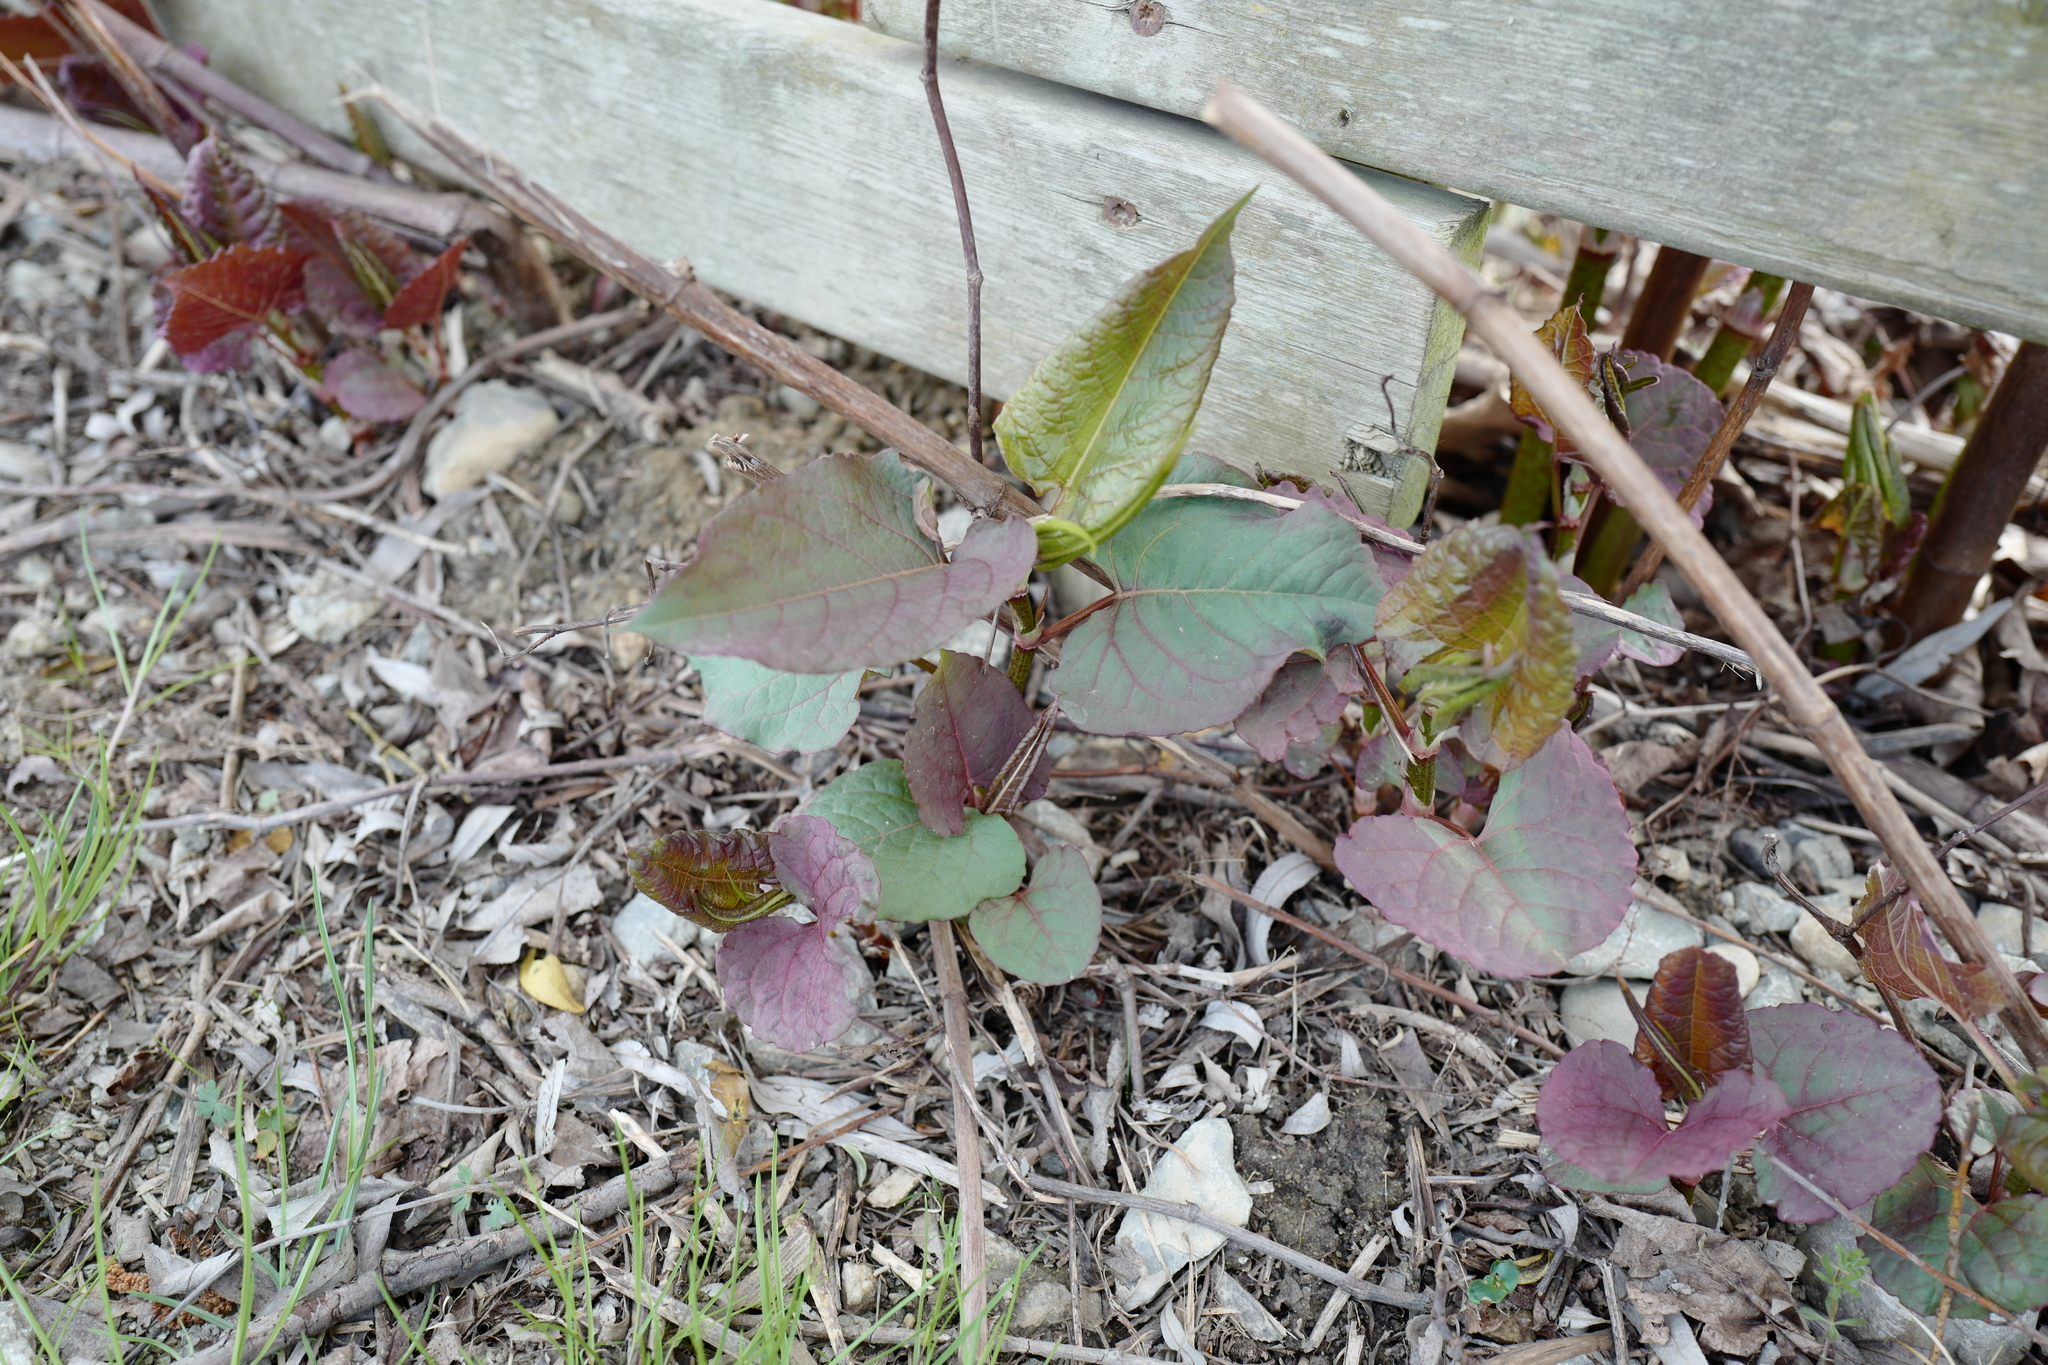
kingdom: Plantae
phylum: Tracheophyta
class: Magnoliopsida
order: Caryophyllales
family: Polygonaceae
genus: Reynoutria
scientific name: Reynoutria bohemica
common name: Bohemian knotweed
